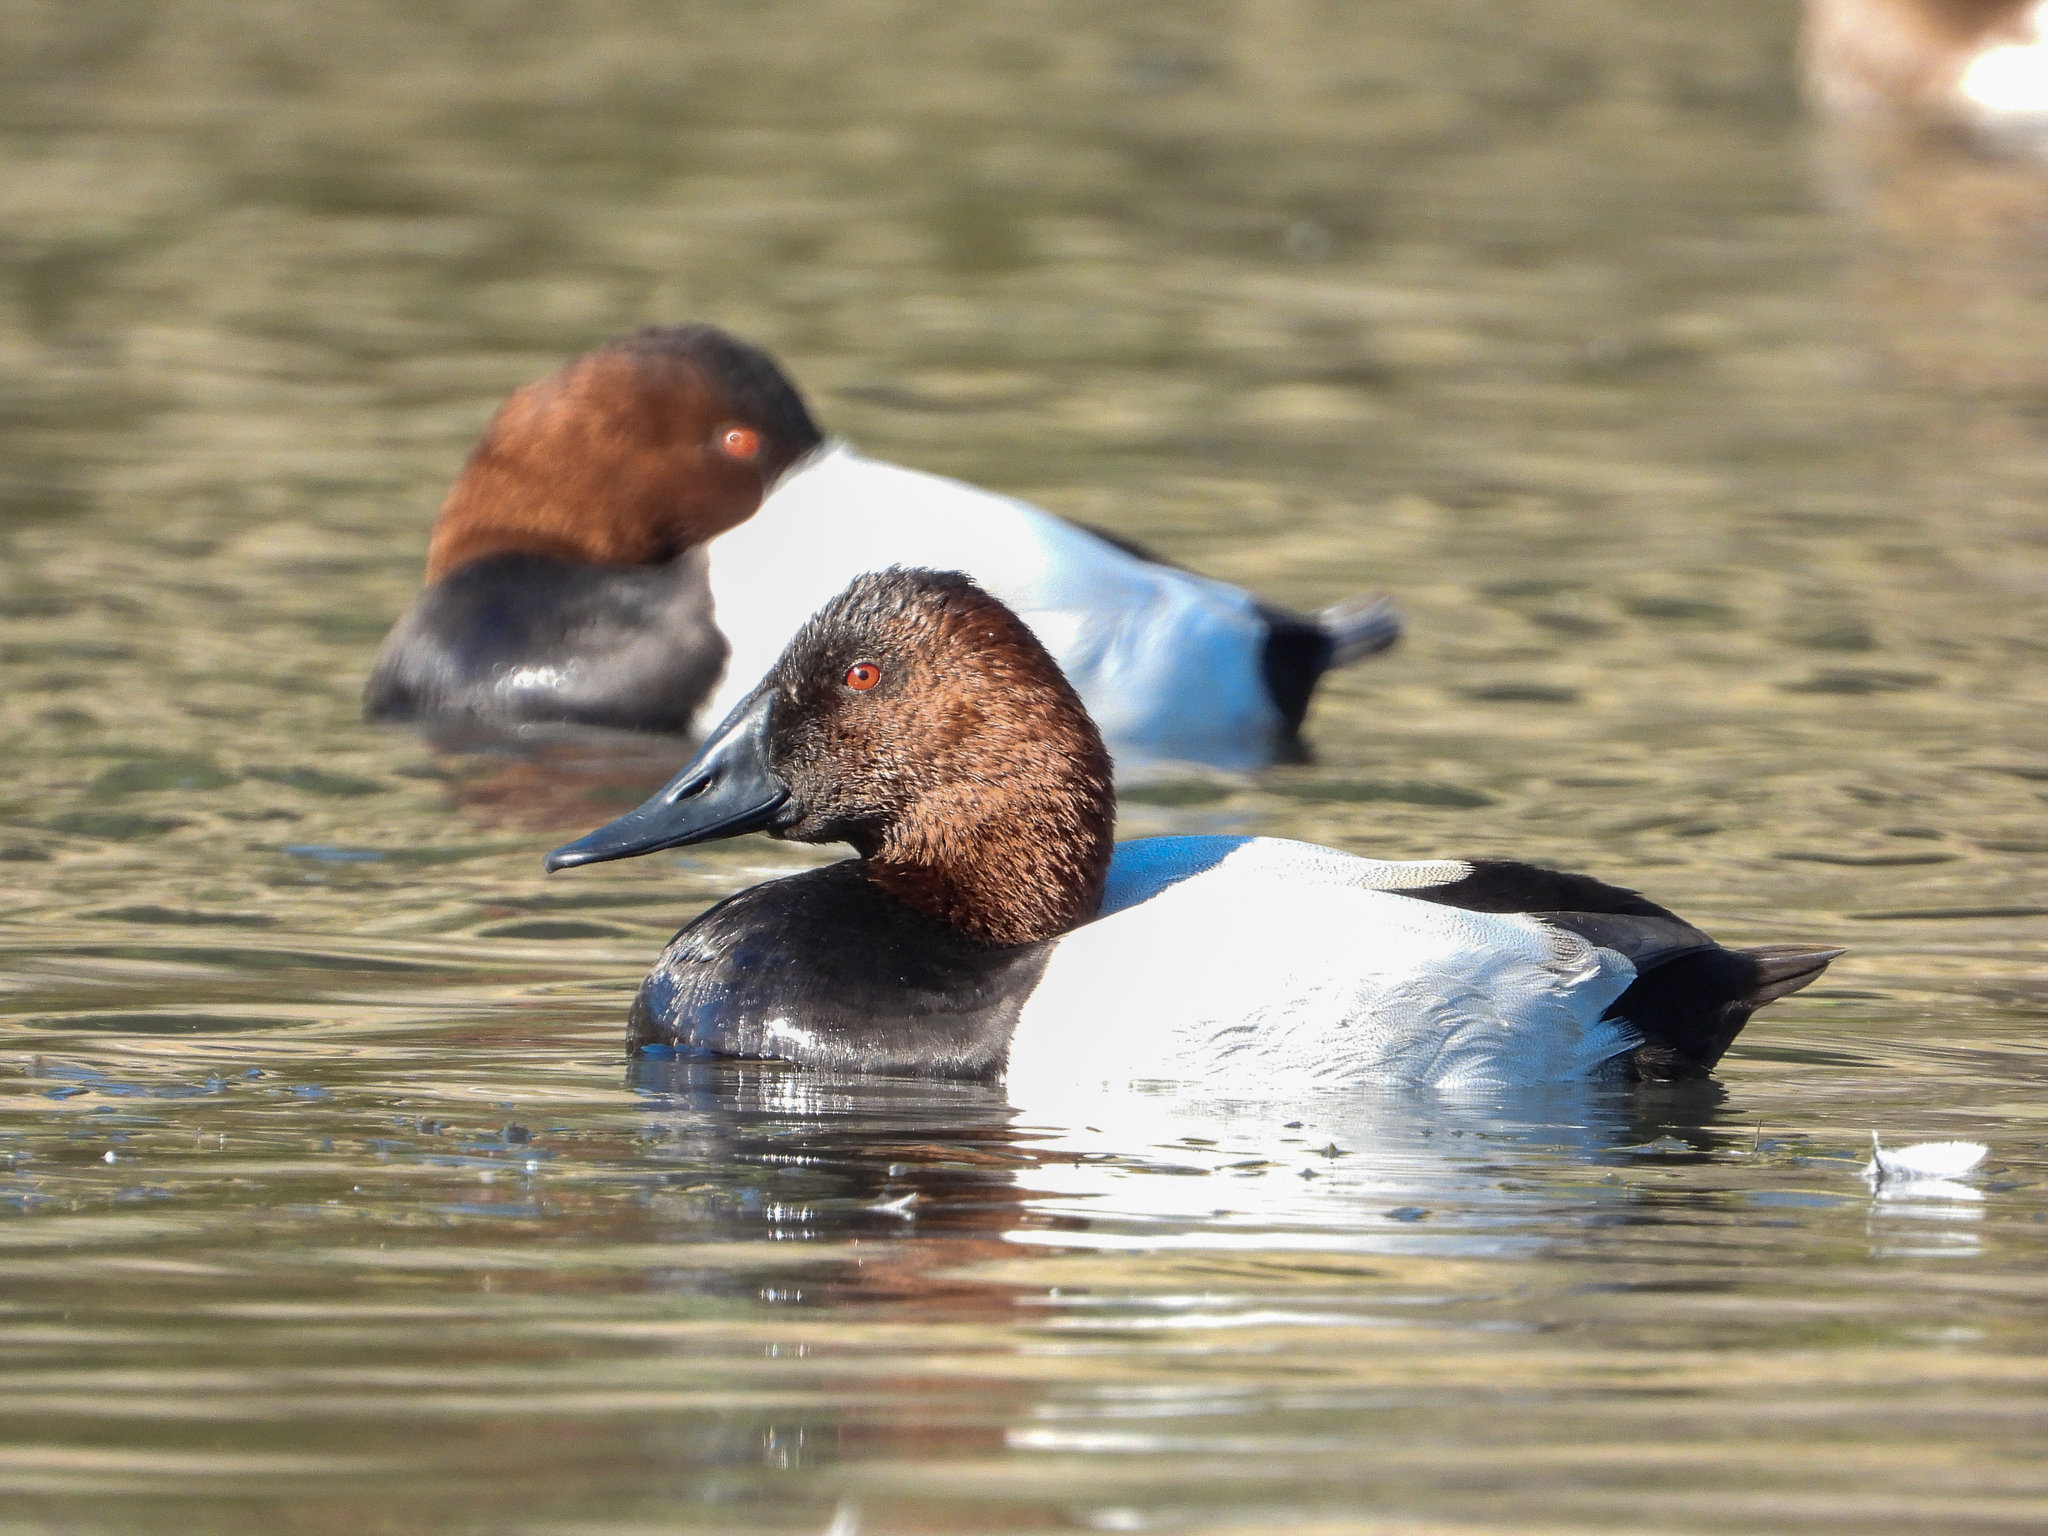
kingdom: Animalia
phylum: Chordata
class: Aves
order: Anseriformes
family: Anatidae
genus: Aythya
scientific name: Aythya valisineria
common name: Canvasback
